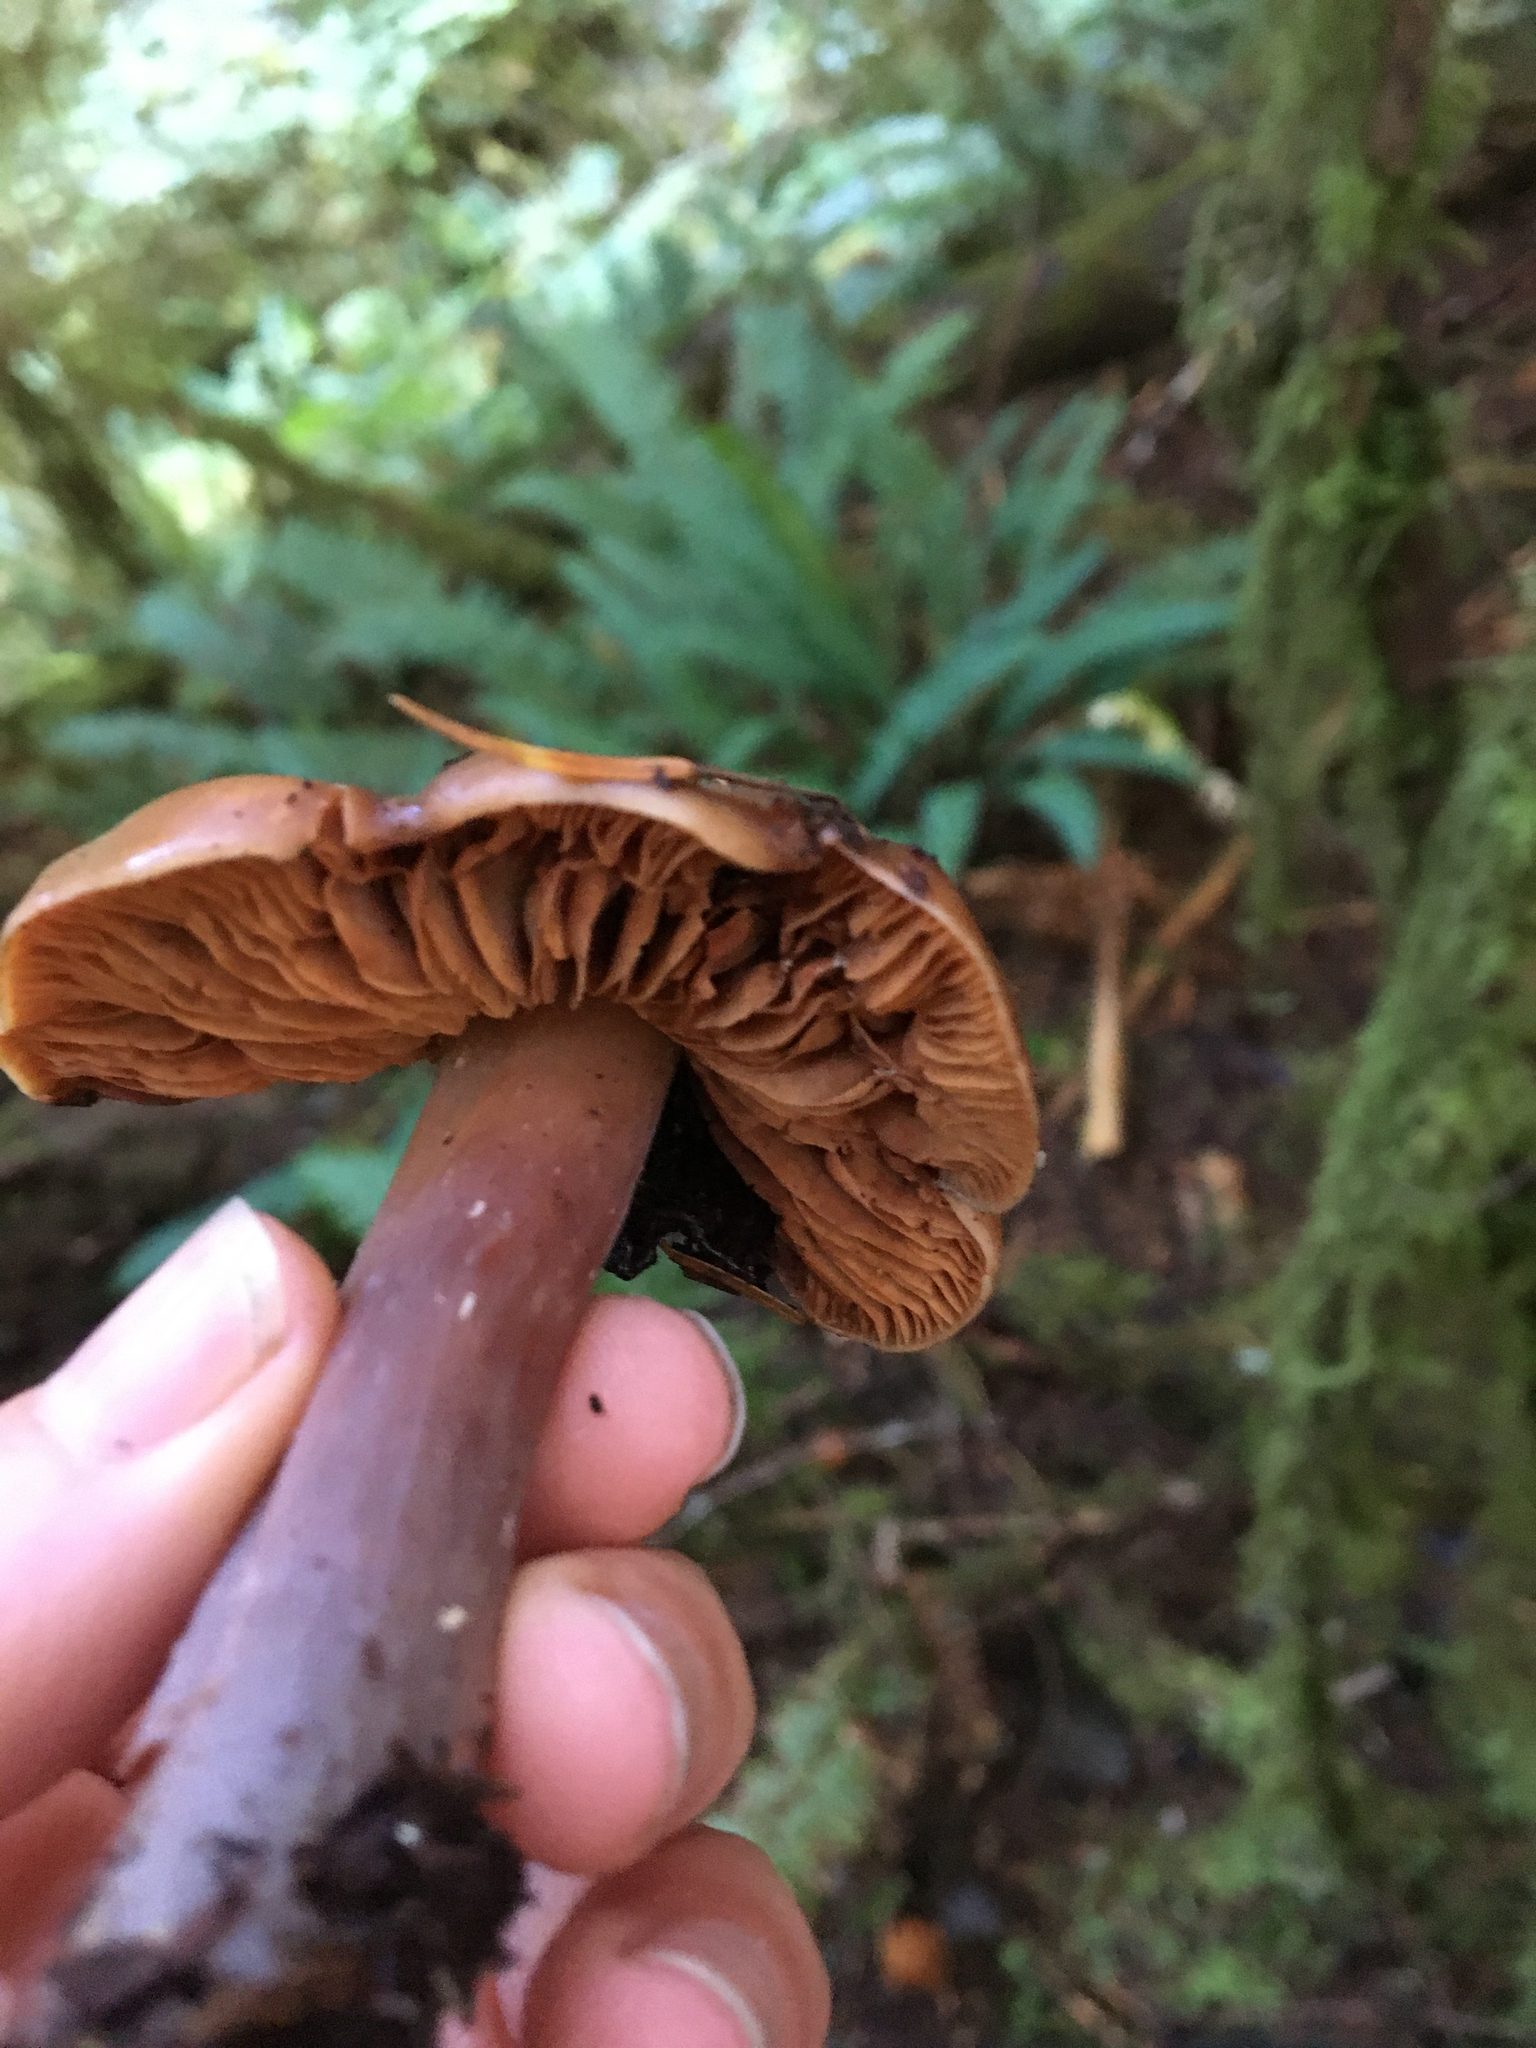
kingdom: Fungi
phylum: Basidiomycota
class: Agaricomycetes
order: Agaricales
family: Hymenogastraceae
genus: Phaeocollybia
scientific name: Phaeocollybia redheadii
